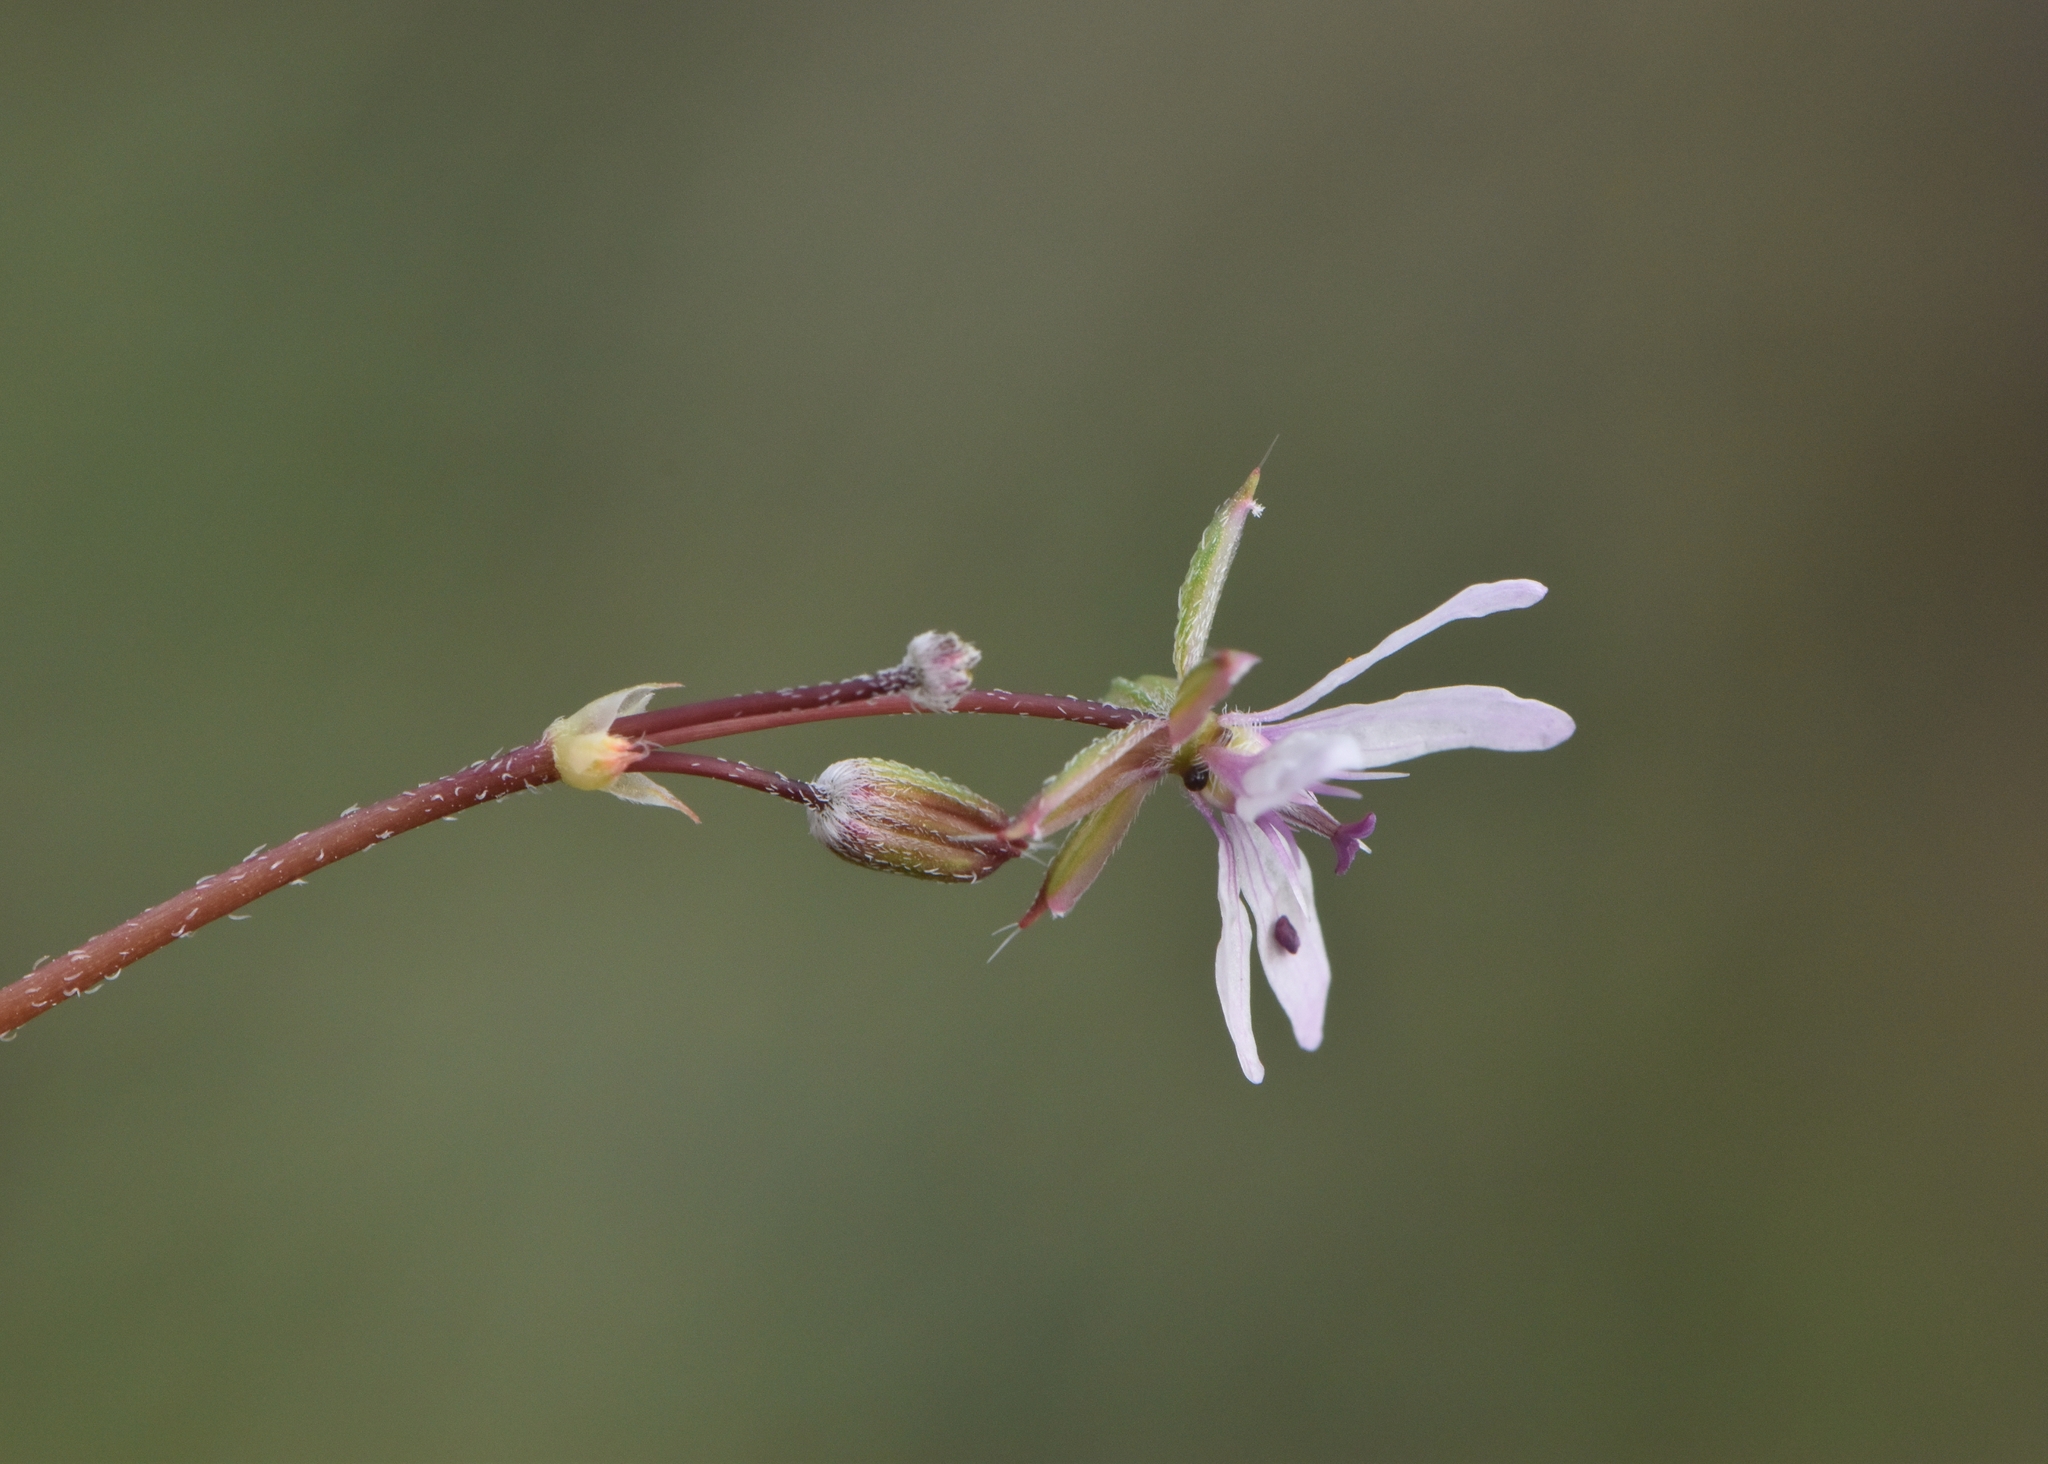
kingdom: Plantae
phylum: Tracheophyta
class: Magnoliopsida
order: Geraniales
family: Geraniaceae
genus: Erodium
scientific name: Erodium cicutarium
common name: Common stork's-bill
